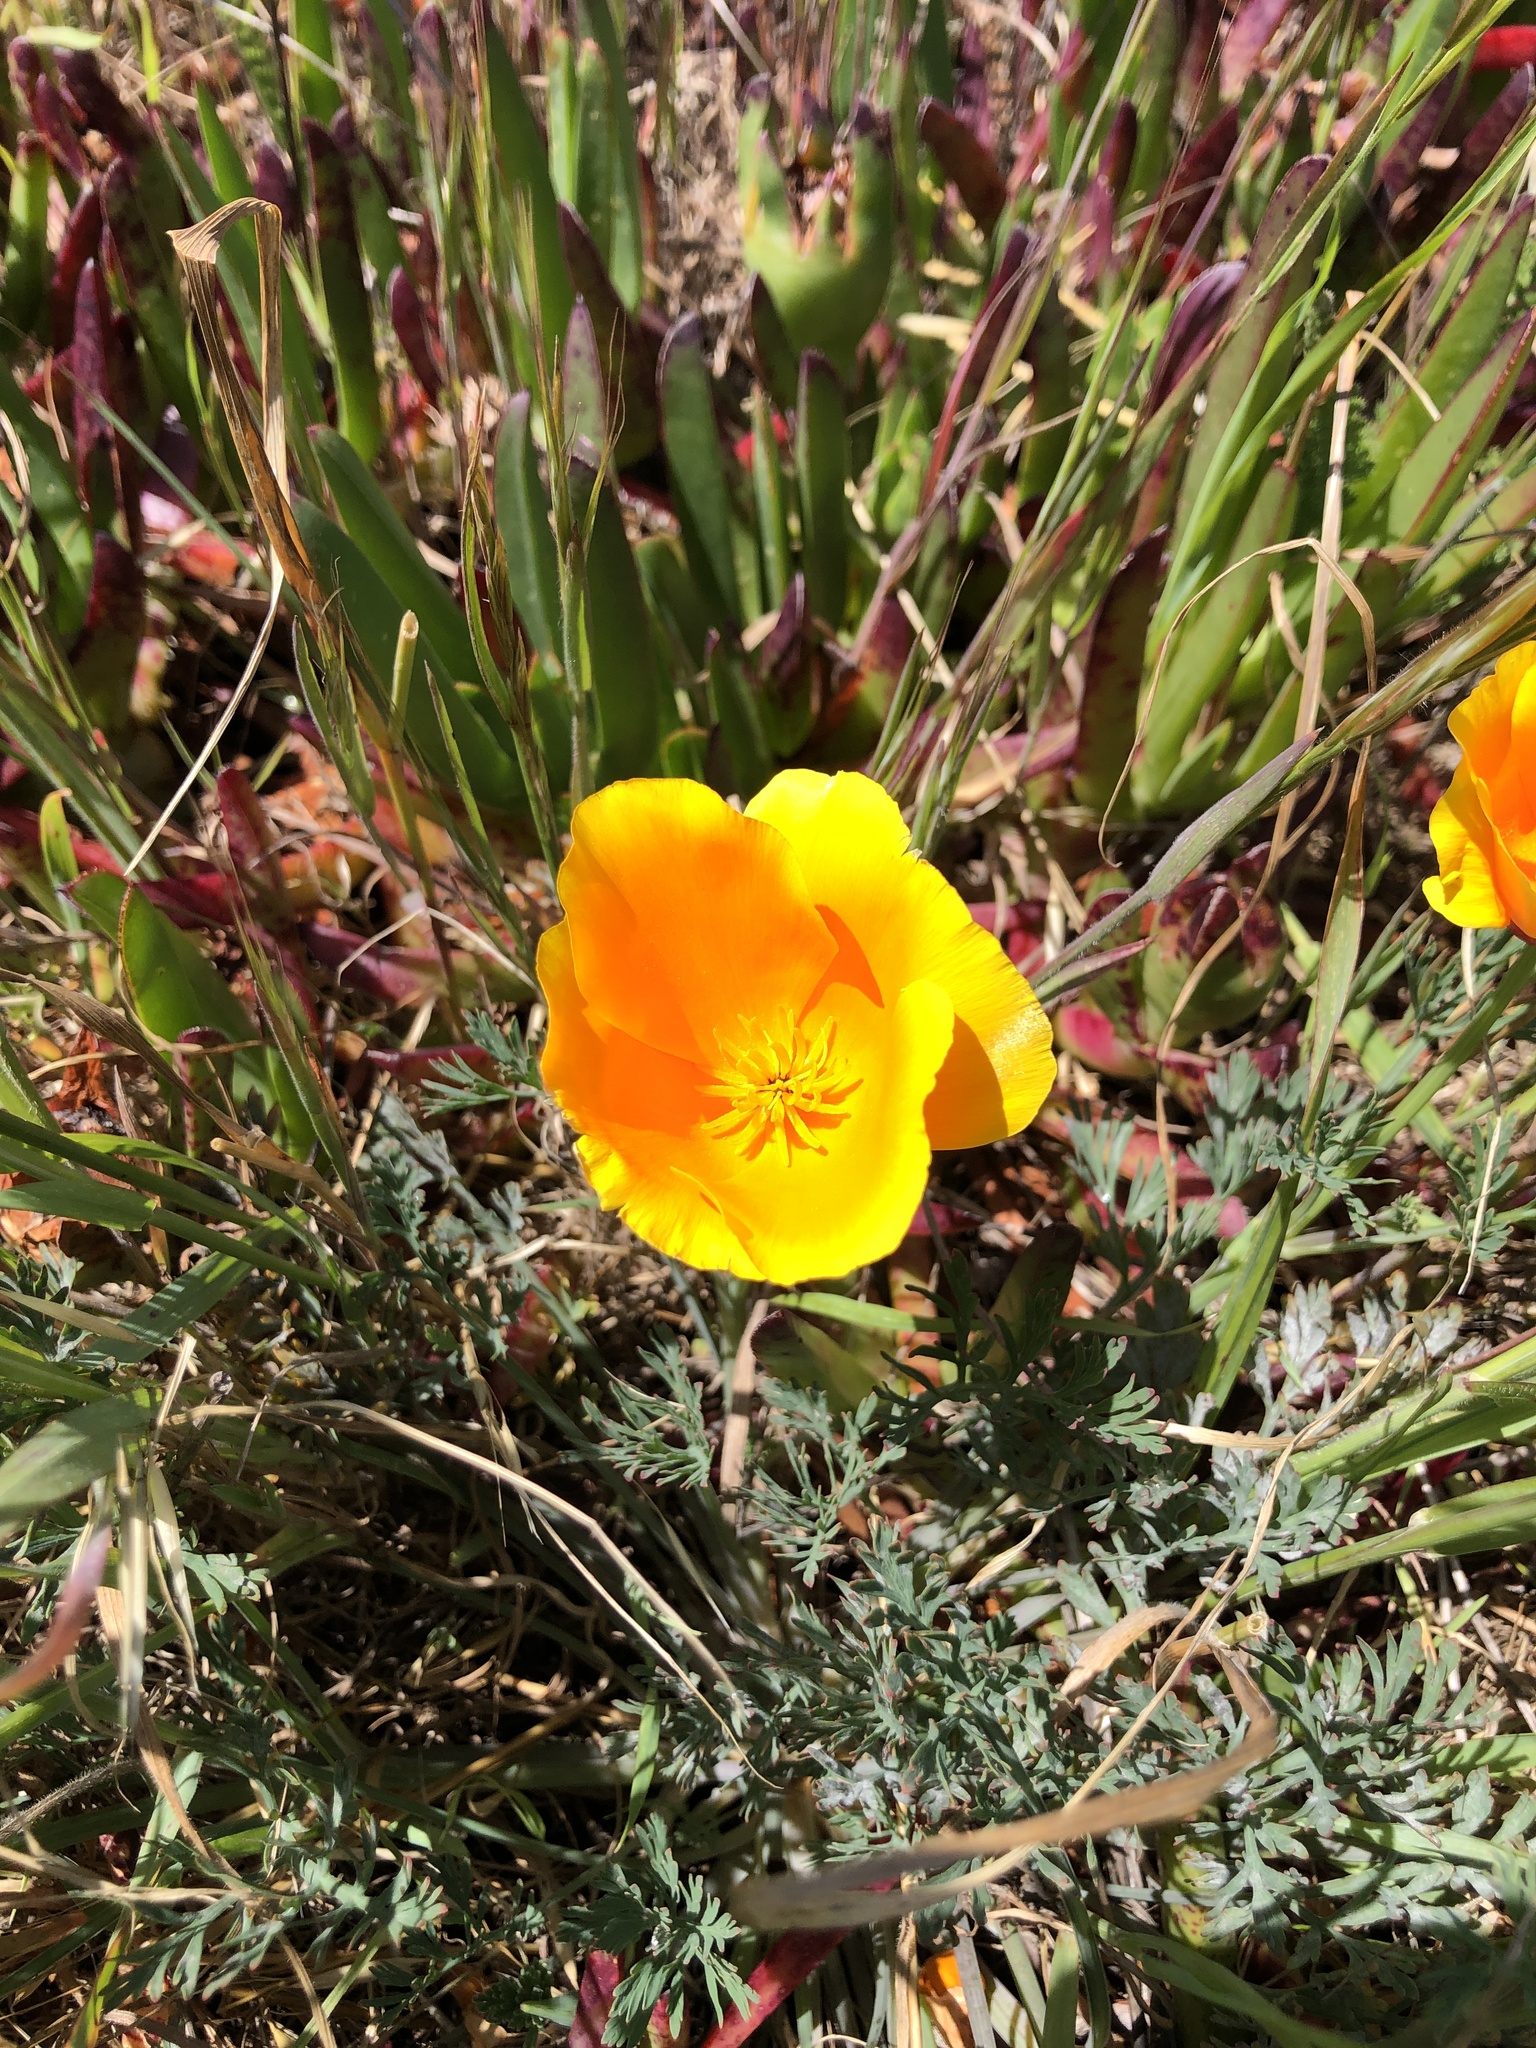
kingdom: Plantae
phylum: Tracheophyta
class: Magnoliopsida
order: Ranunculales
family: Papaveraceae
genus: Eschscholzia
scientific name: Eschscholzia californica
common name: California poppy
